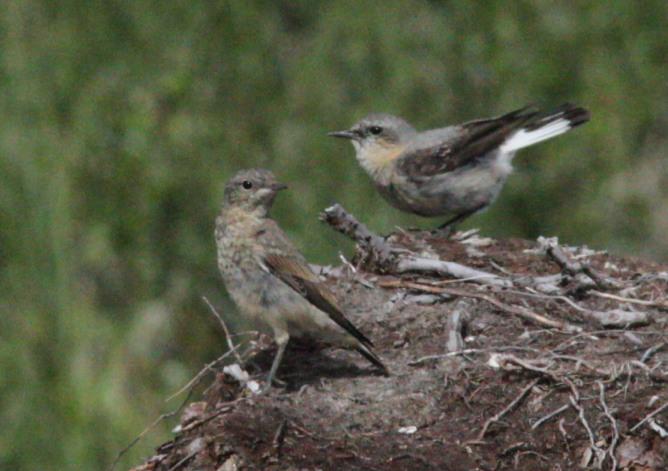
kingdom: Animalia
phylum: Chordata
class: Aves
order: Passeriformes
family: Muscicapidae
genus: Oenanthe
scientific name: Oenanthe oenanthe
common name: Northern wheatear
